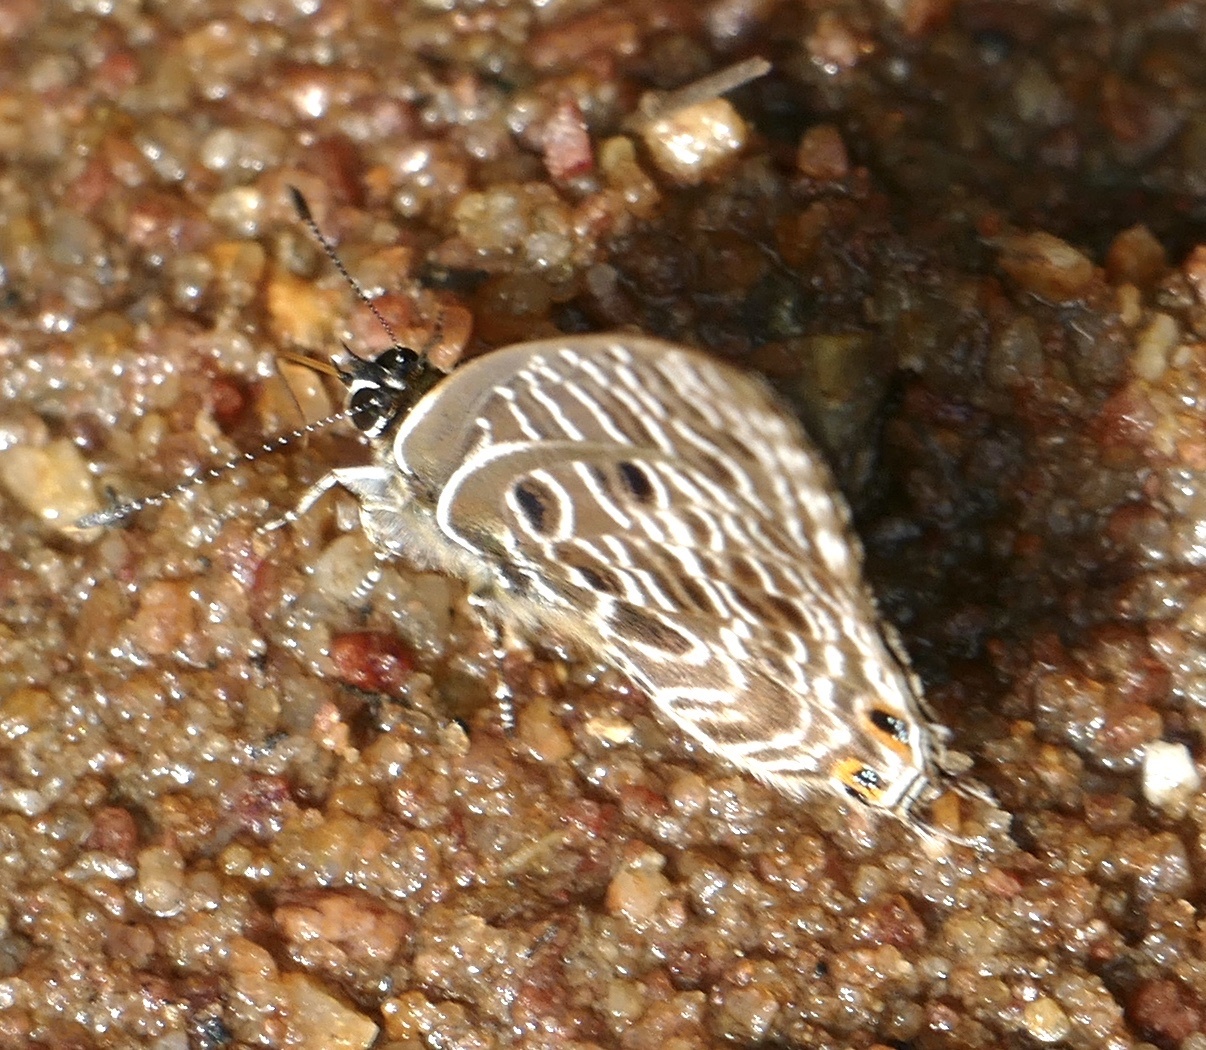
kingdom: Animalia
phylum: Arthropoda
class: Insecta
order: Lepidoptera
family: Lycaenidae
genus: Anthene
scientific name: Anthene larydas
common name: Forest hairtail
